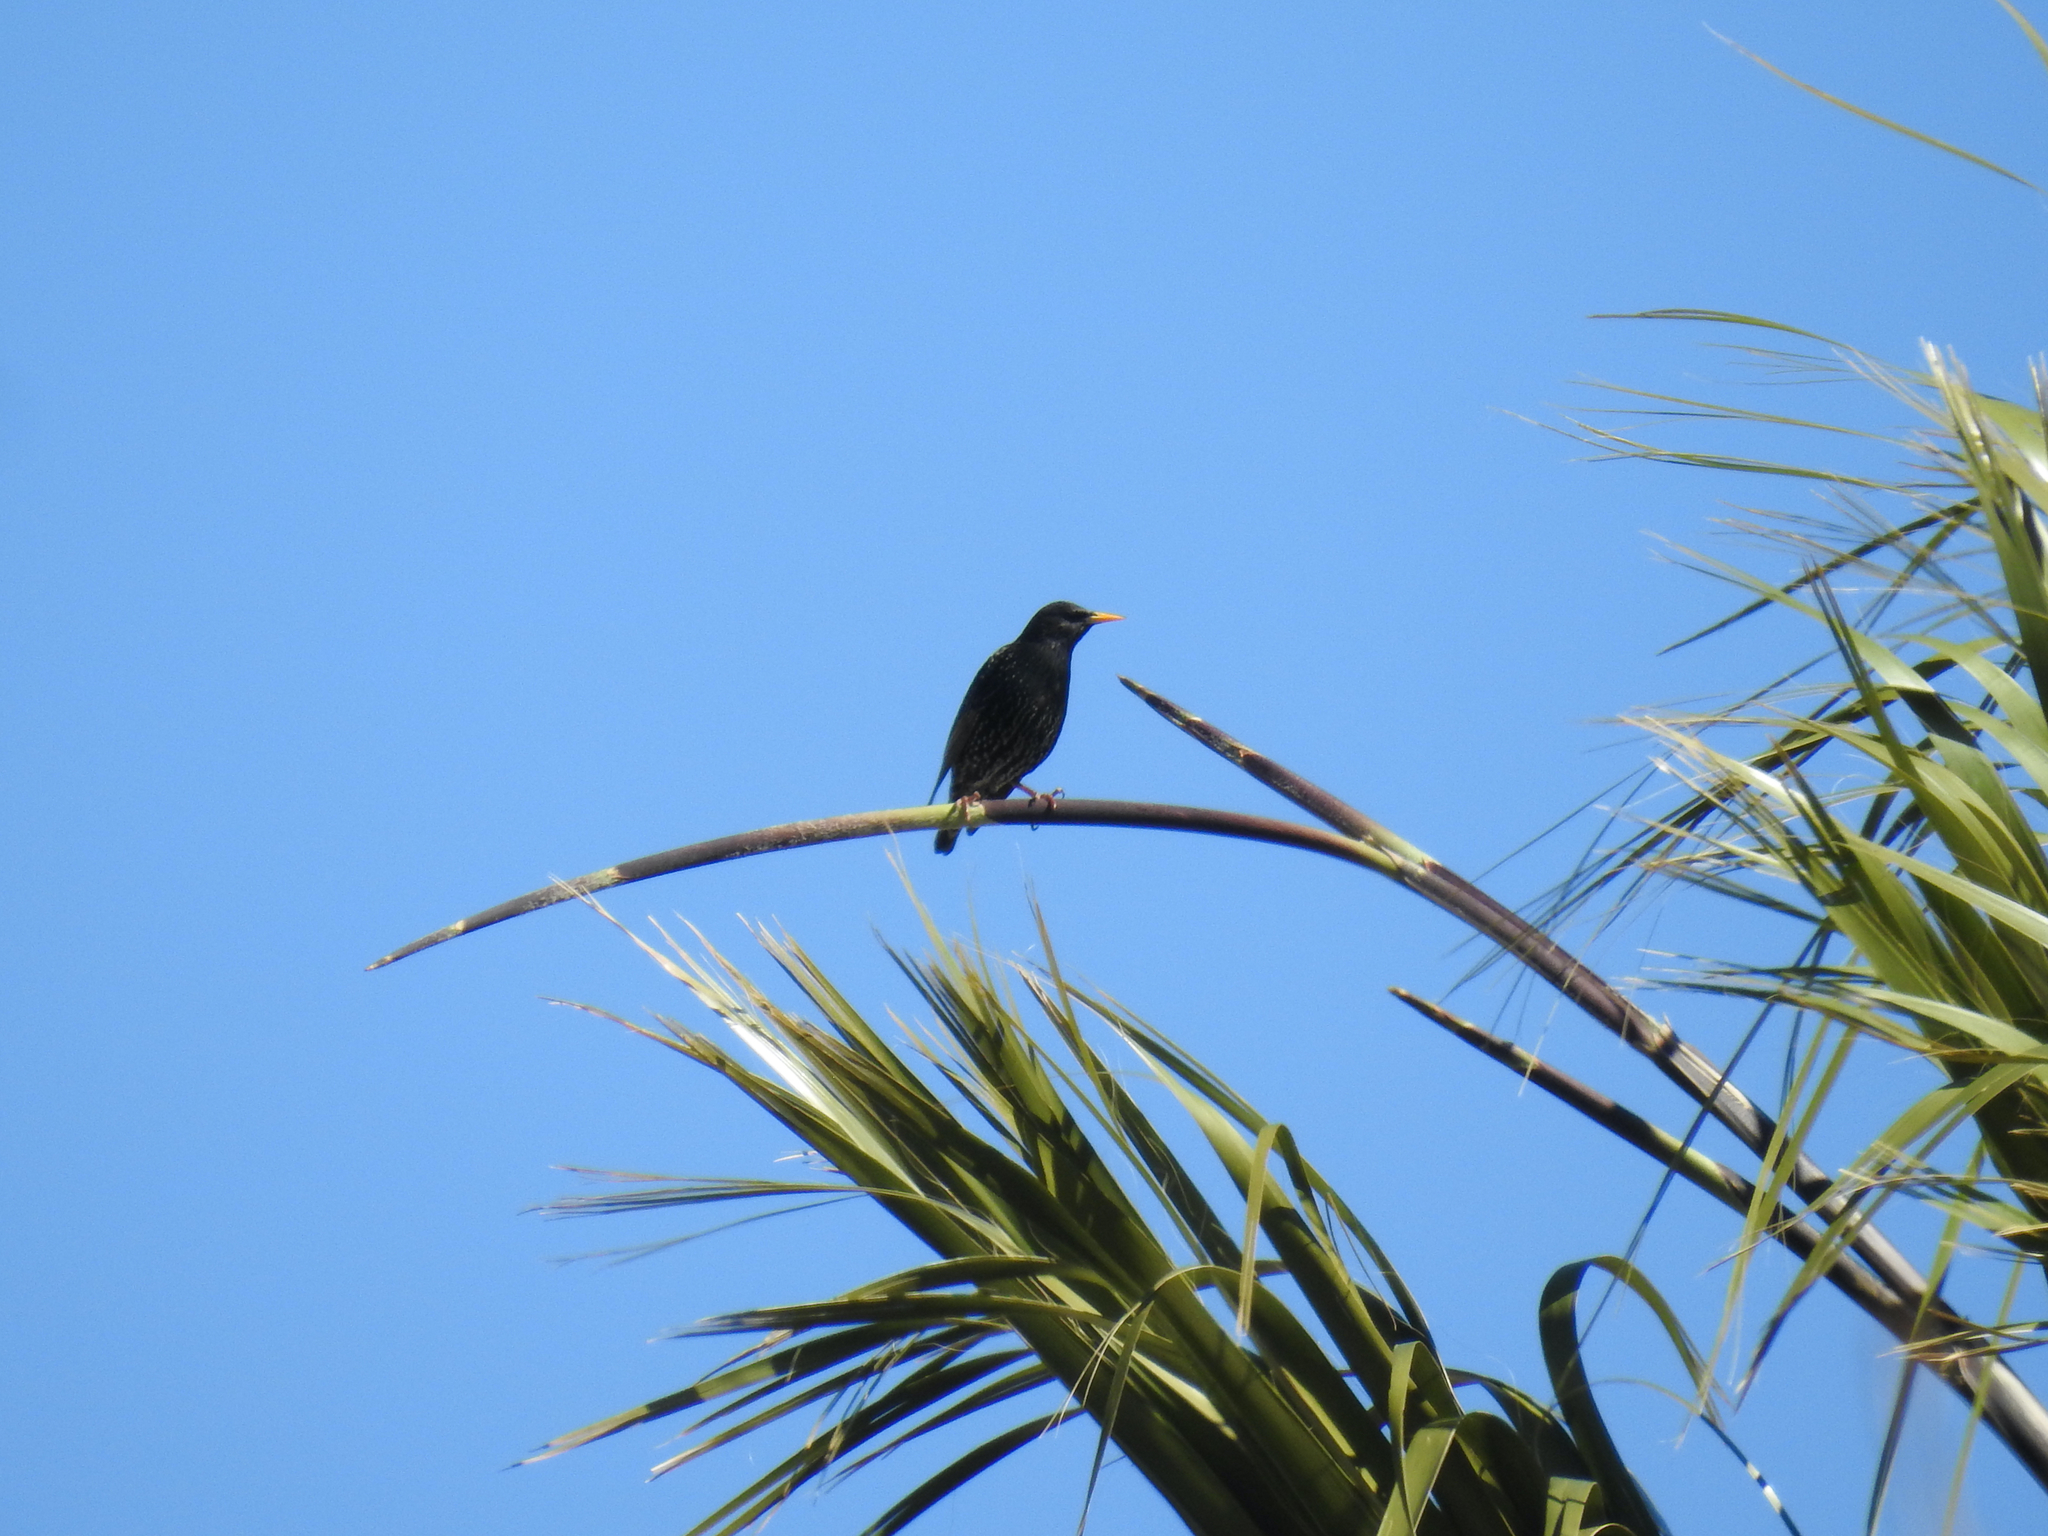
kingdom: Animalia
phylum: Chordata
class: Aves
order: Passeriformes
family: Sturnidae
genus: Sturnus
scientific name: Sturnus vulgaris
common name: Common starling
